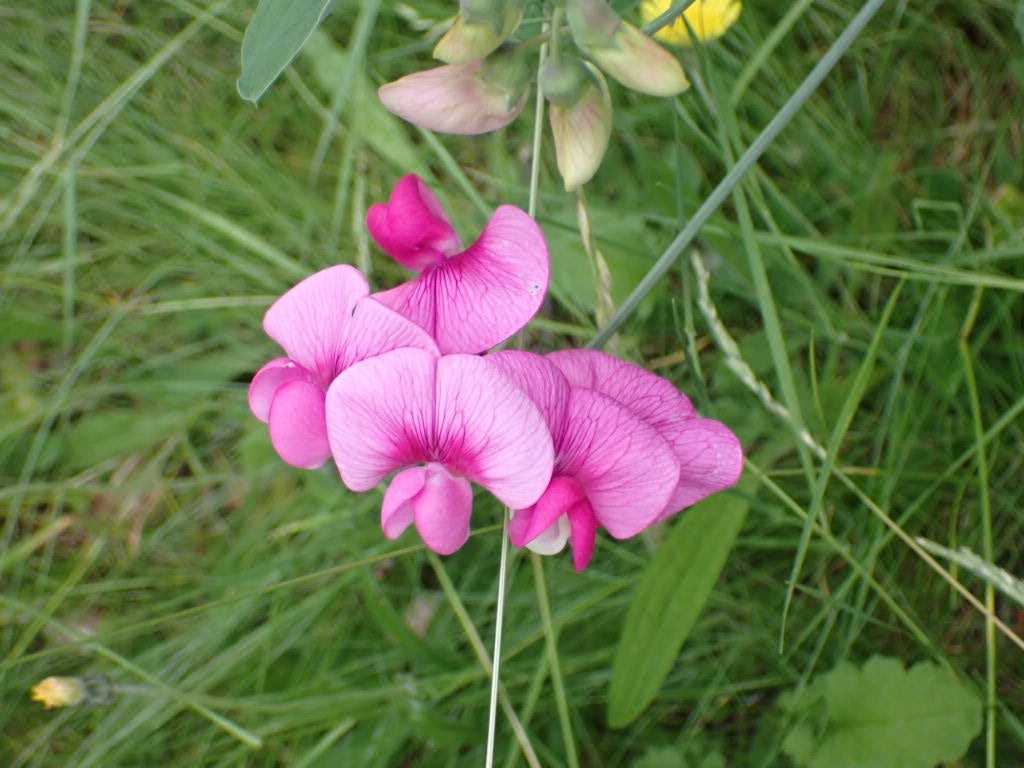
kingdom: Plantae
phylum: Tracheophyta
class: Magnoliopsida
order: Fabales
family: Fabaceae
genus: Lathyrus
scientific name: Lathyrus latifolius
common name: Perennial pea
